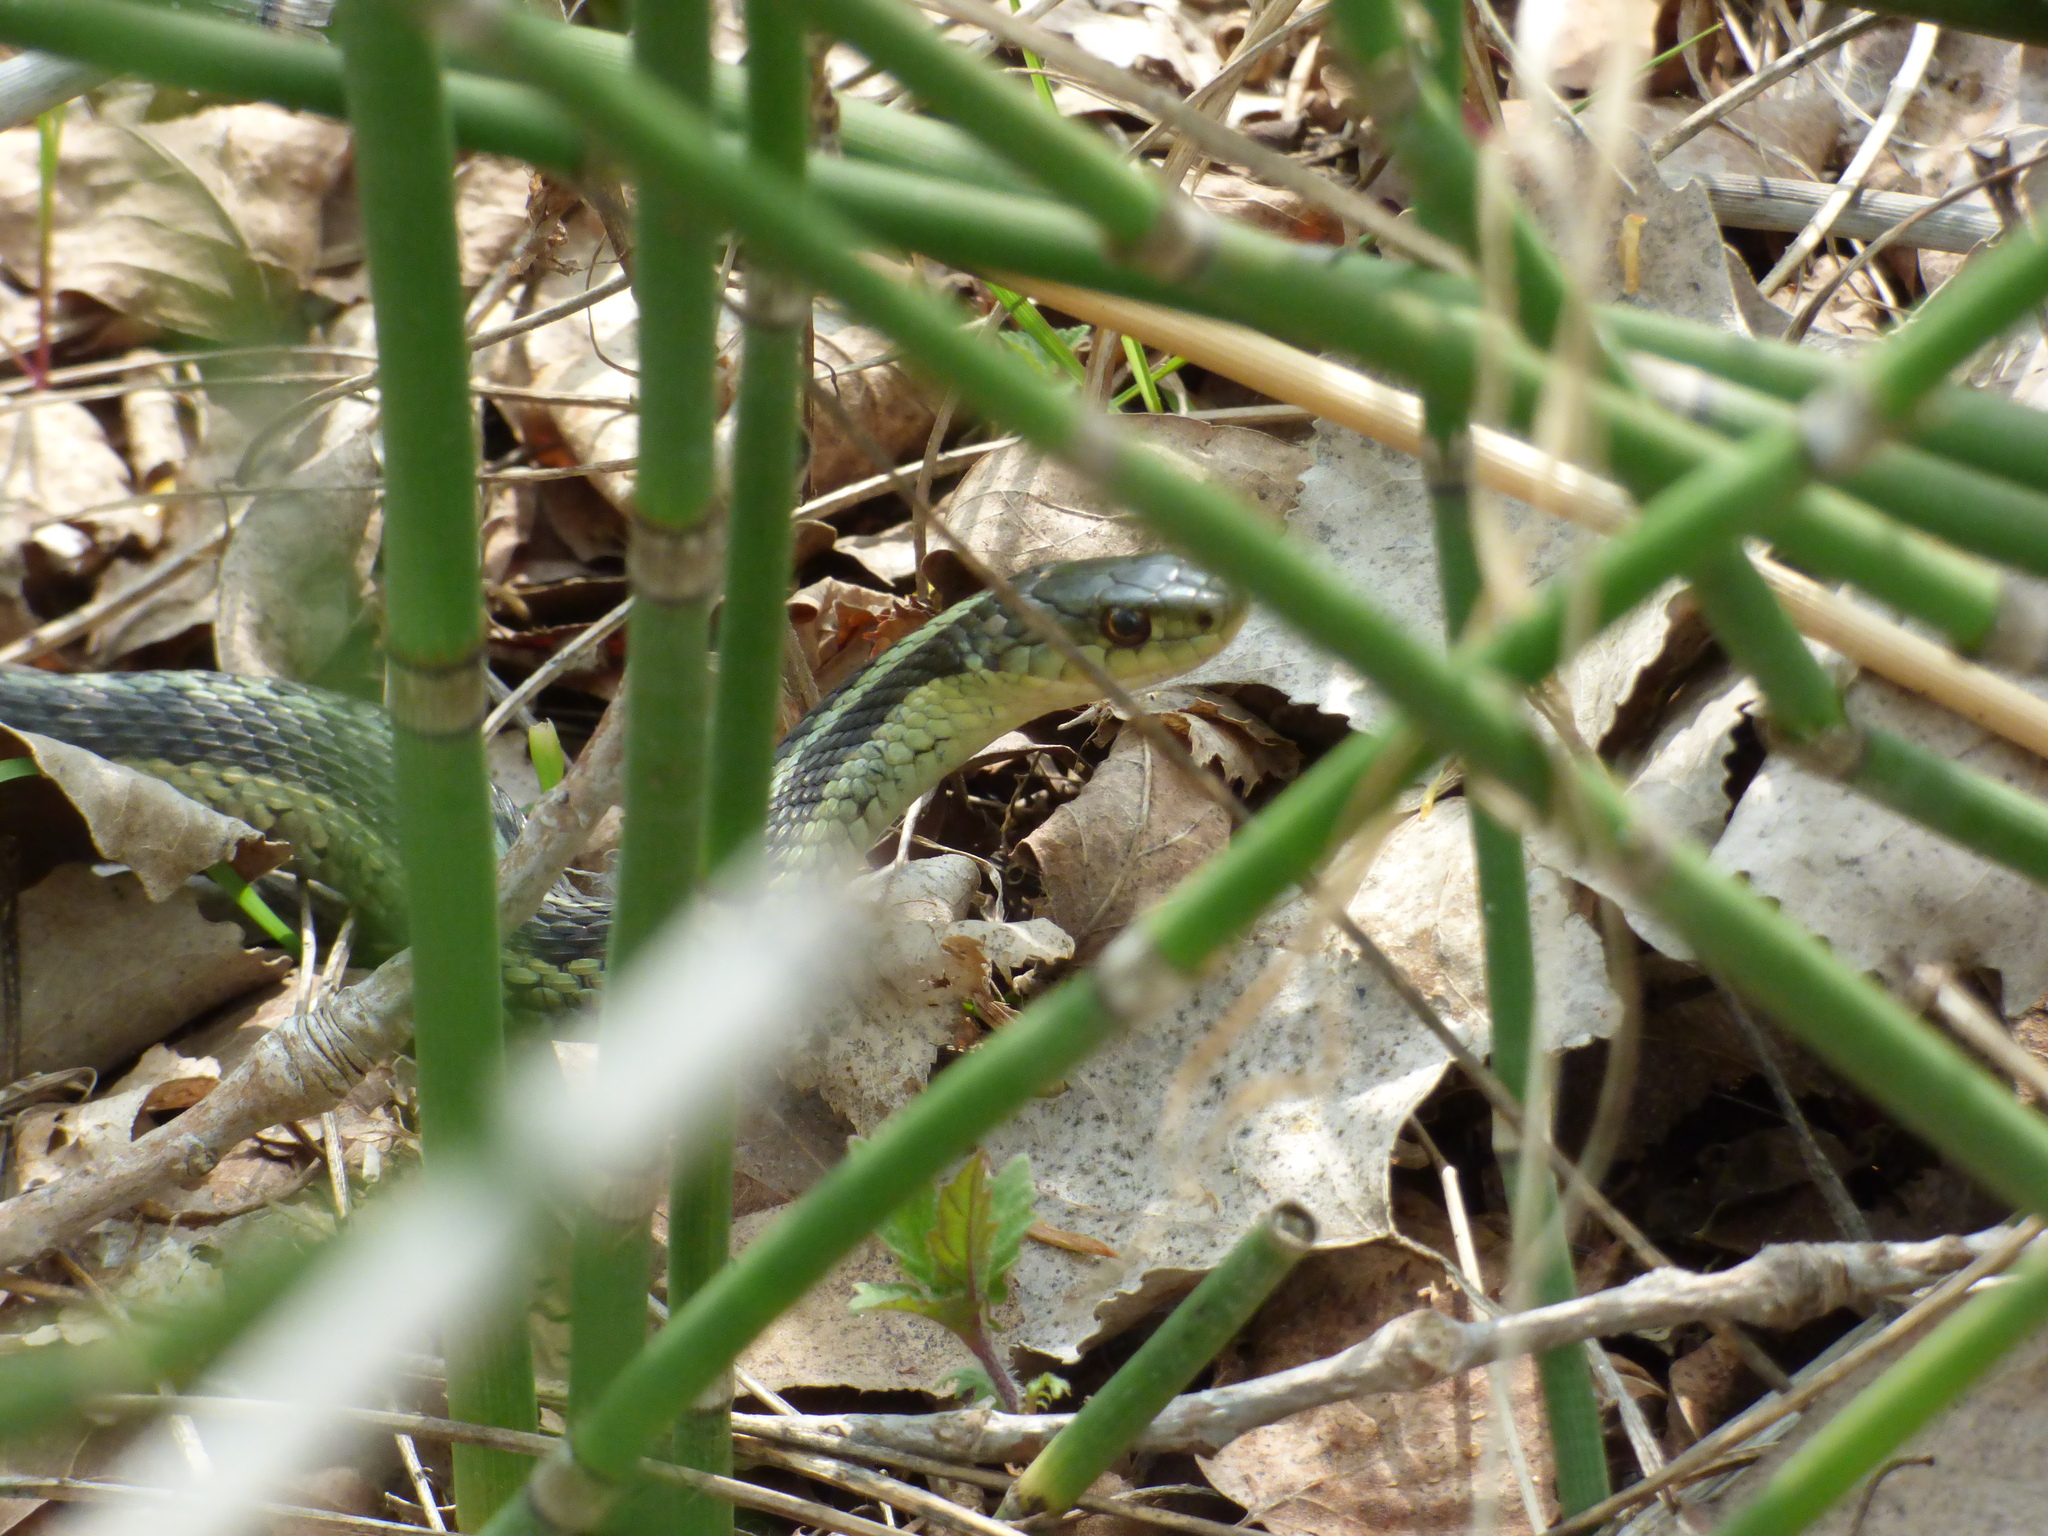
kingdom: Animalia
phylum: Chordata
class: Squamata
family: Colubridae
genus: Thamnophis
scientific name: Thamnophis sirtalis
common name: Common garter snake
